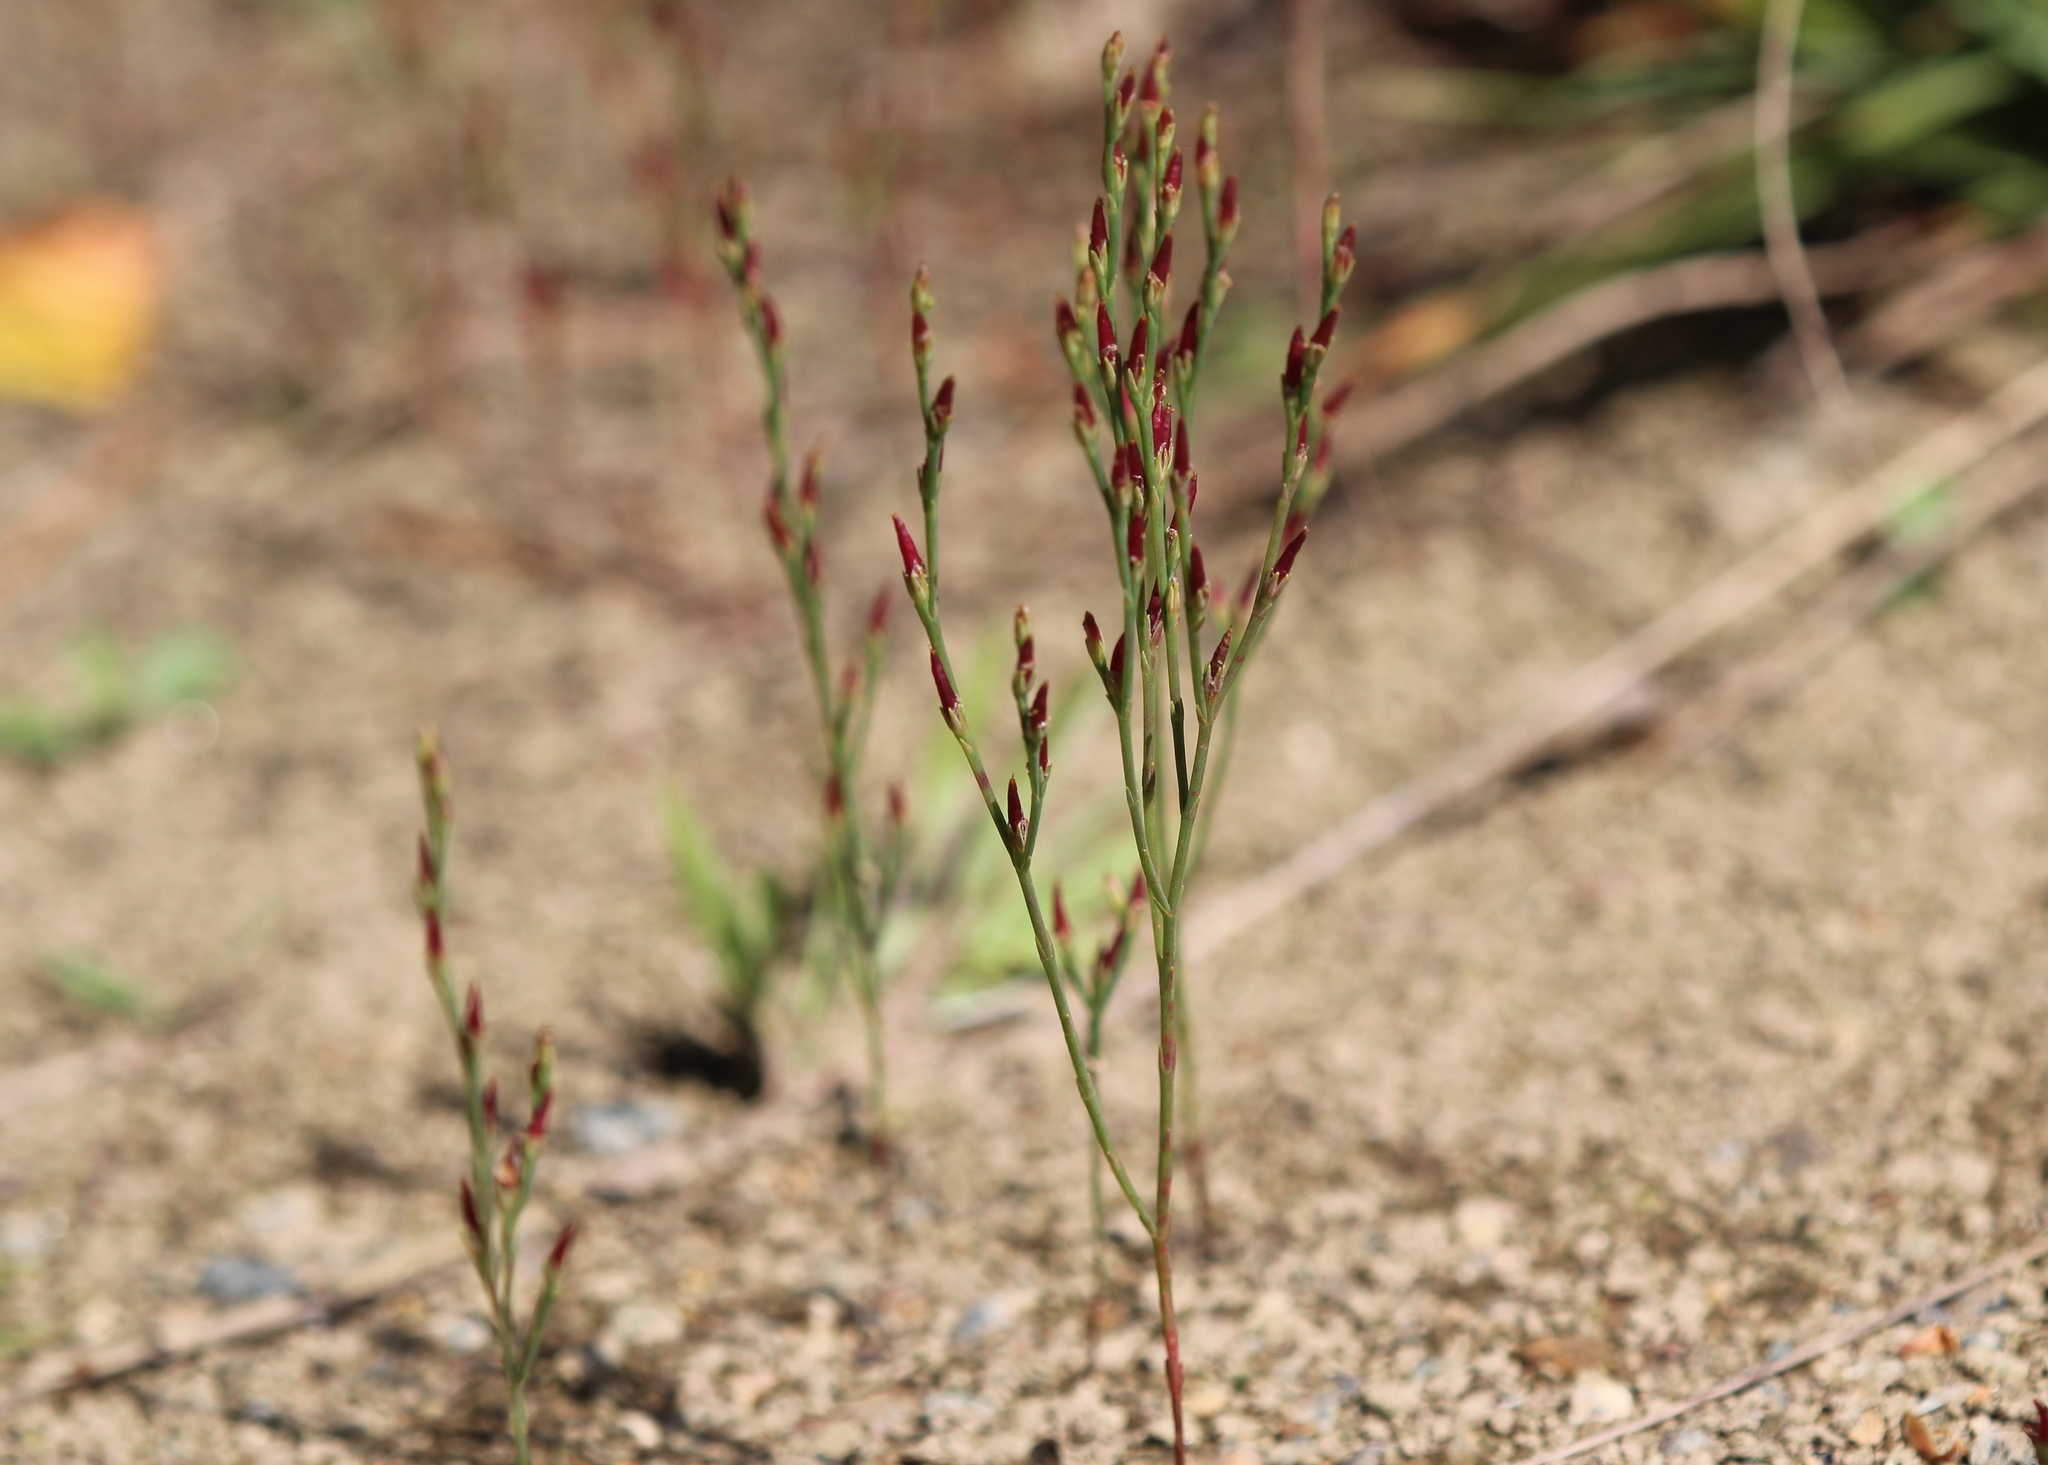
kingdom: Plantae
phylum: Tracheophyta
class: Magnoliopsida
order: Malpighiales
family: Hypericaceae
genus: Hypericum
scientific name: Hypericum gentianoides
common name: Gentian-leaved st. john's-wort
